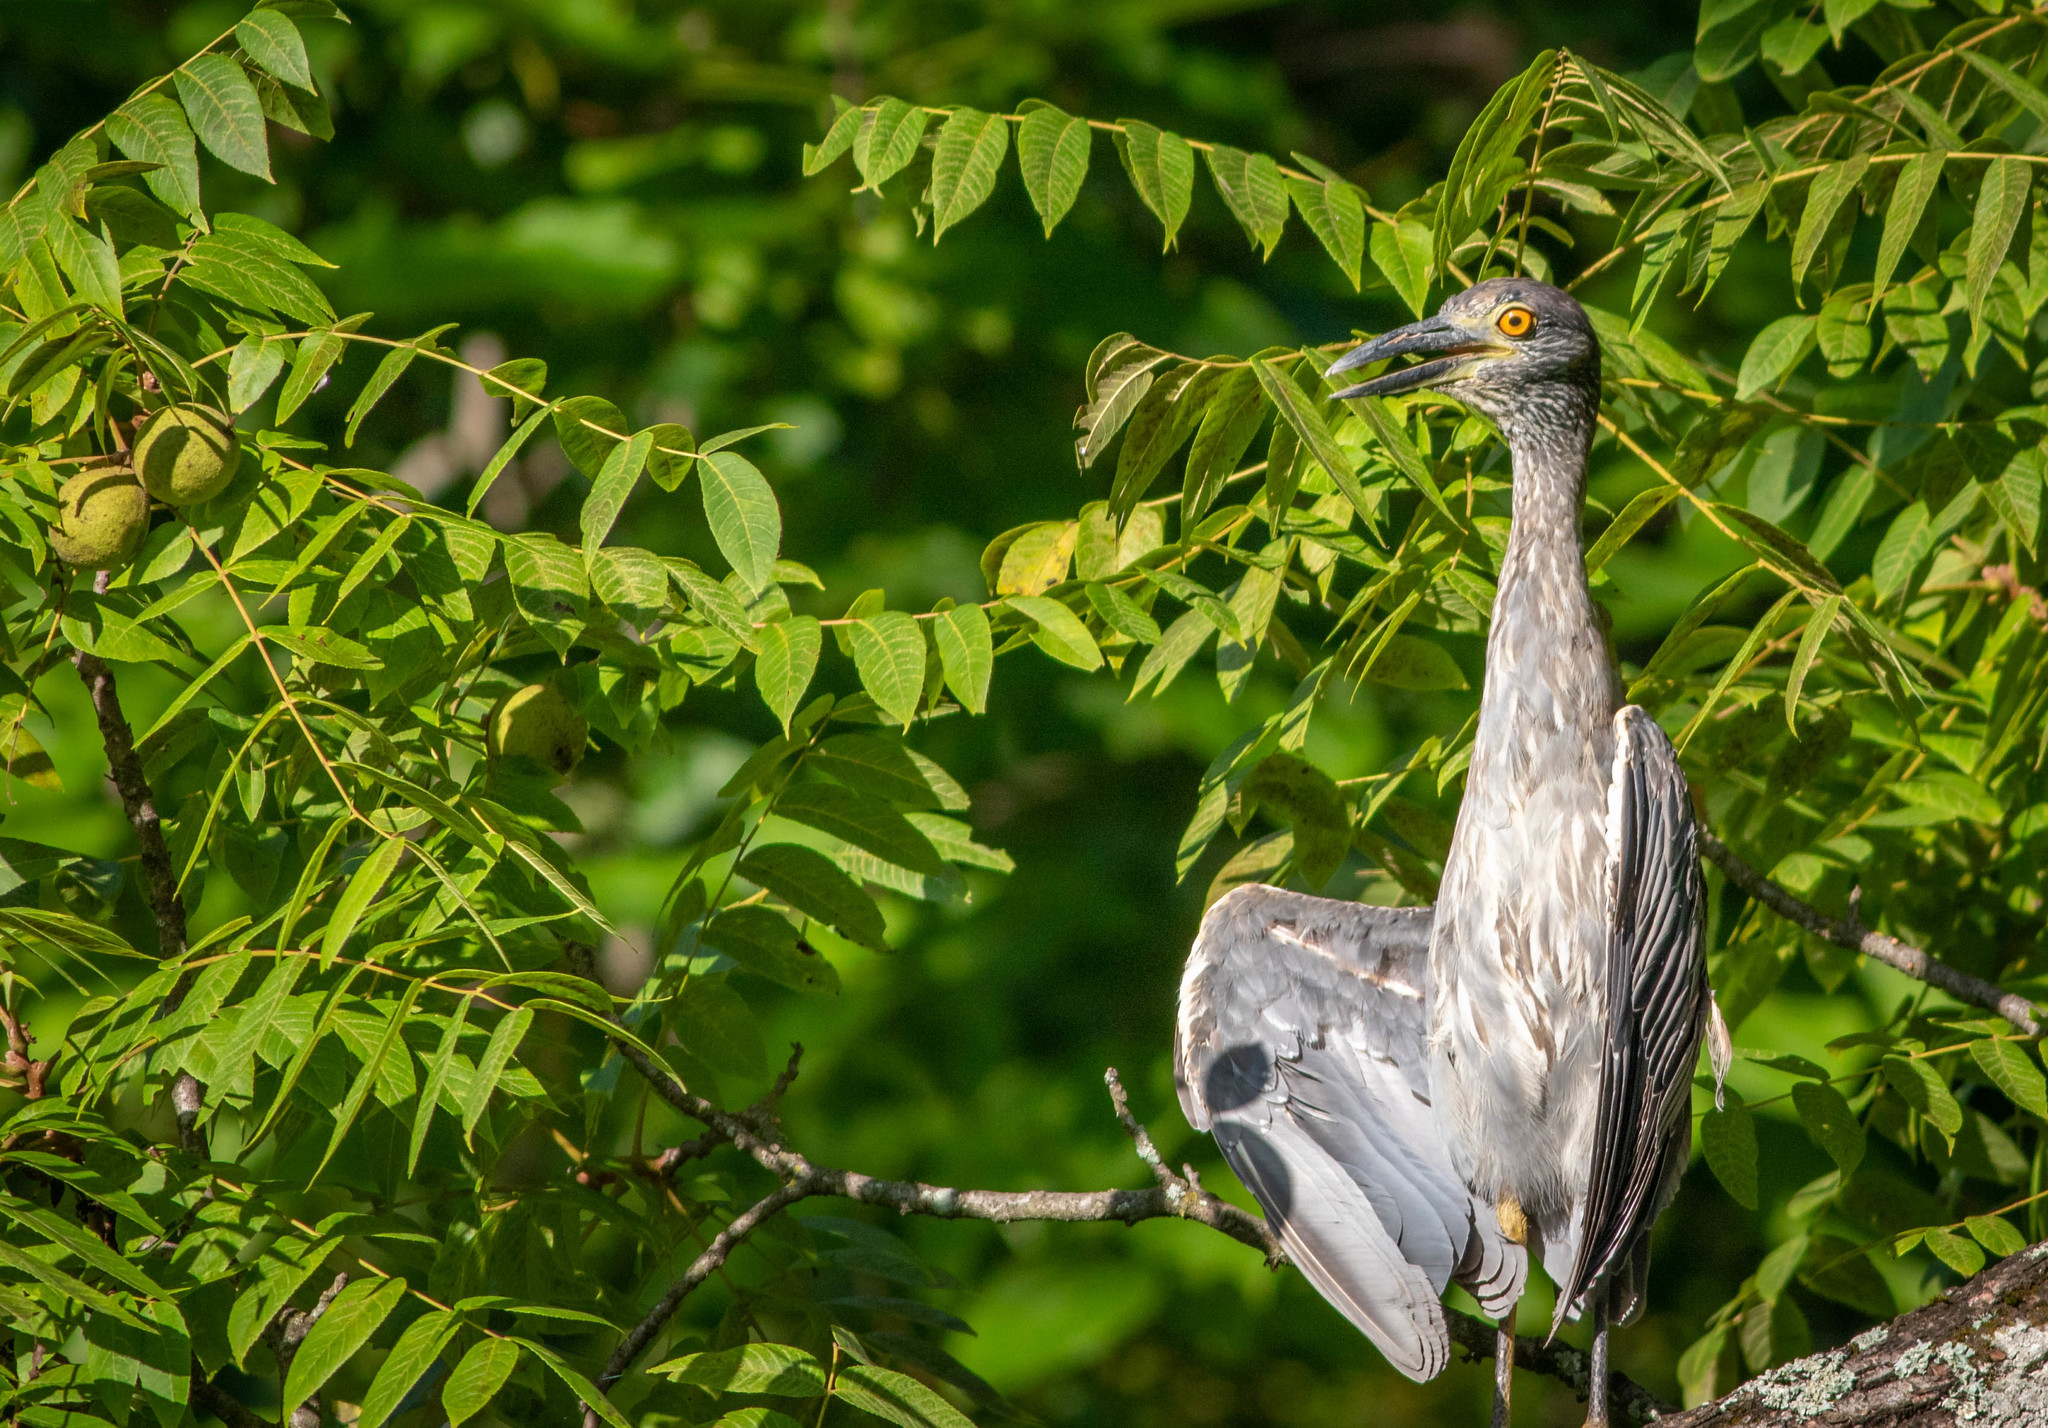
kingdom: Animalia
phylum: Chordata
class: Aves
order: Pelecaniformes
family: Ardeidae
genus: Nyctanassa
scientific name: Nyctanassa violacea
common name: Yellow-crowned night heron
